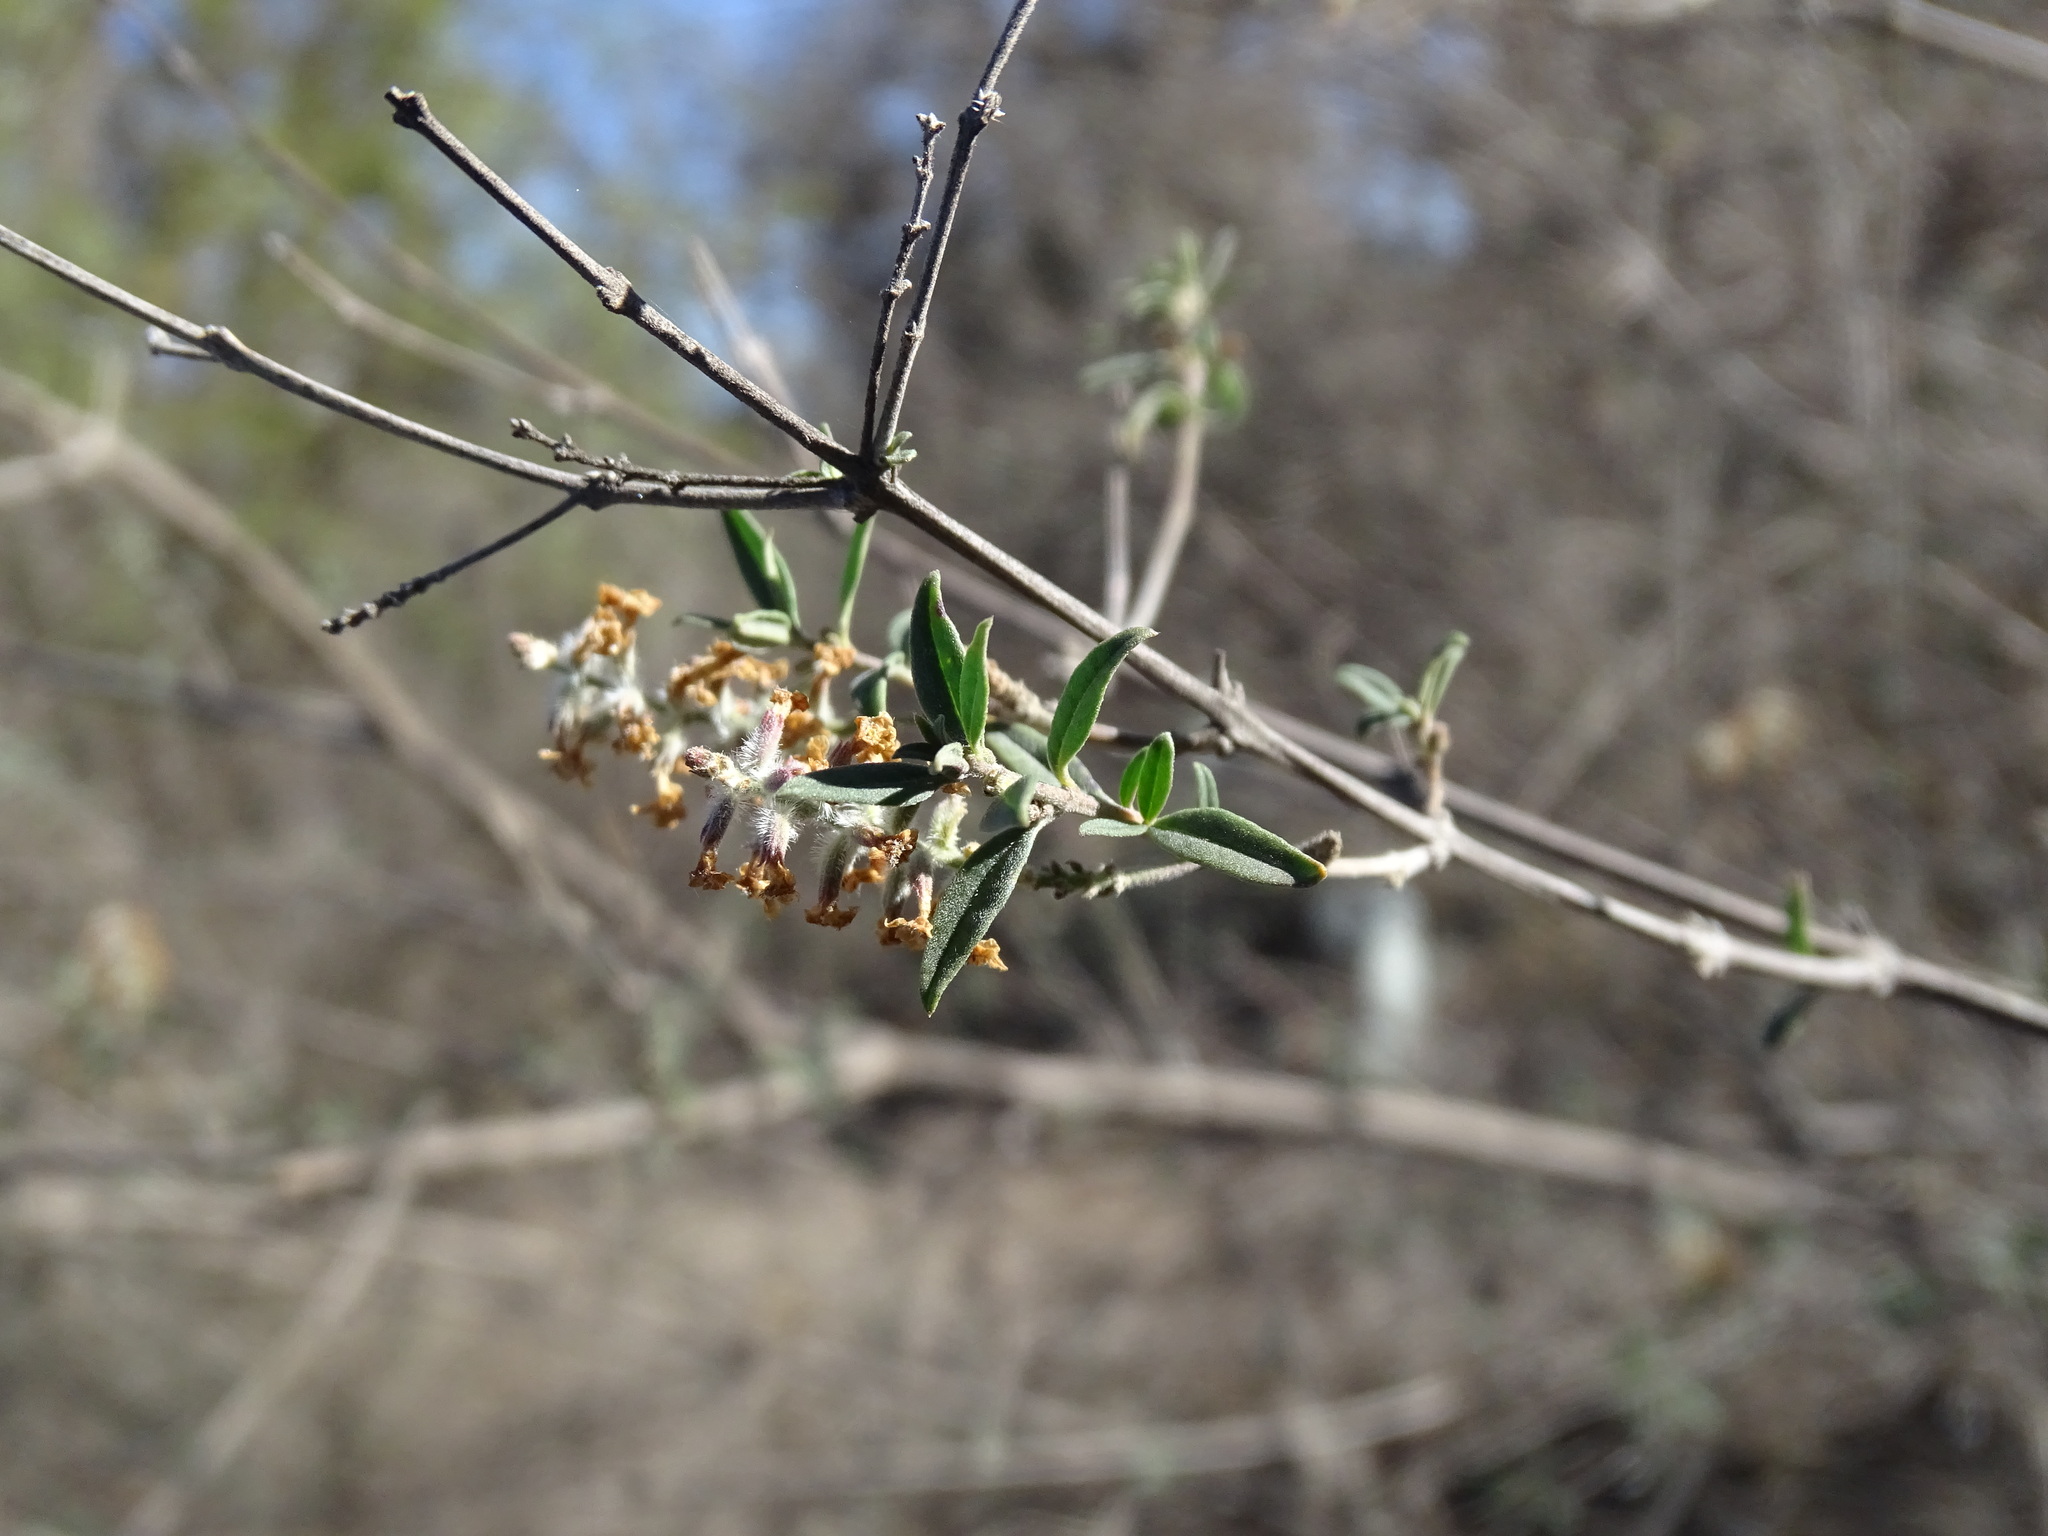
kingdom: Plantae
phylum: Tracheophyta
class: Magnoliopsida
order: Lamiales
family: Verbenaceae
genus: Aloysia
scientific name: Aloysia gratissima
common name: Common bee-brush
